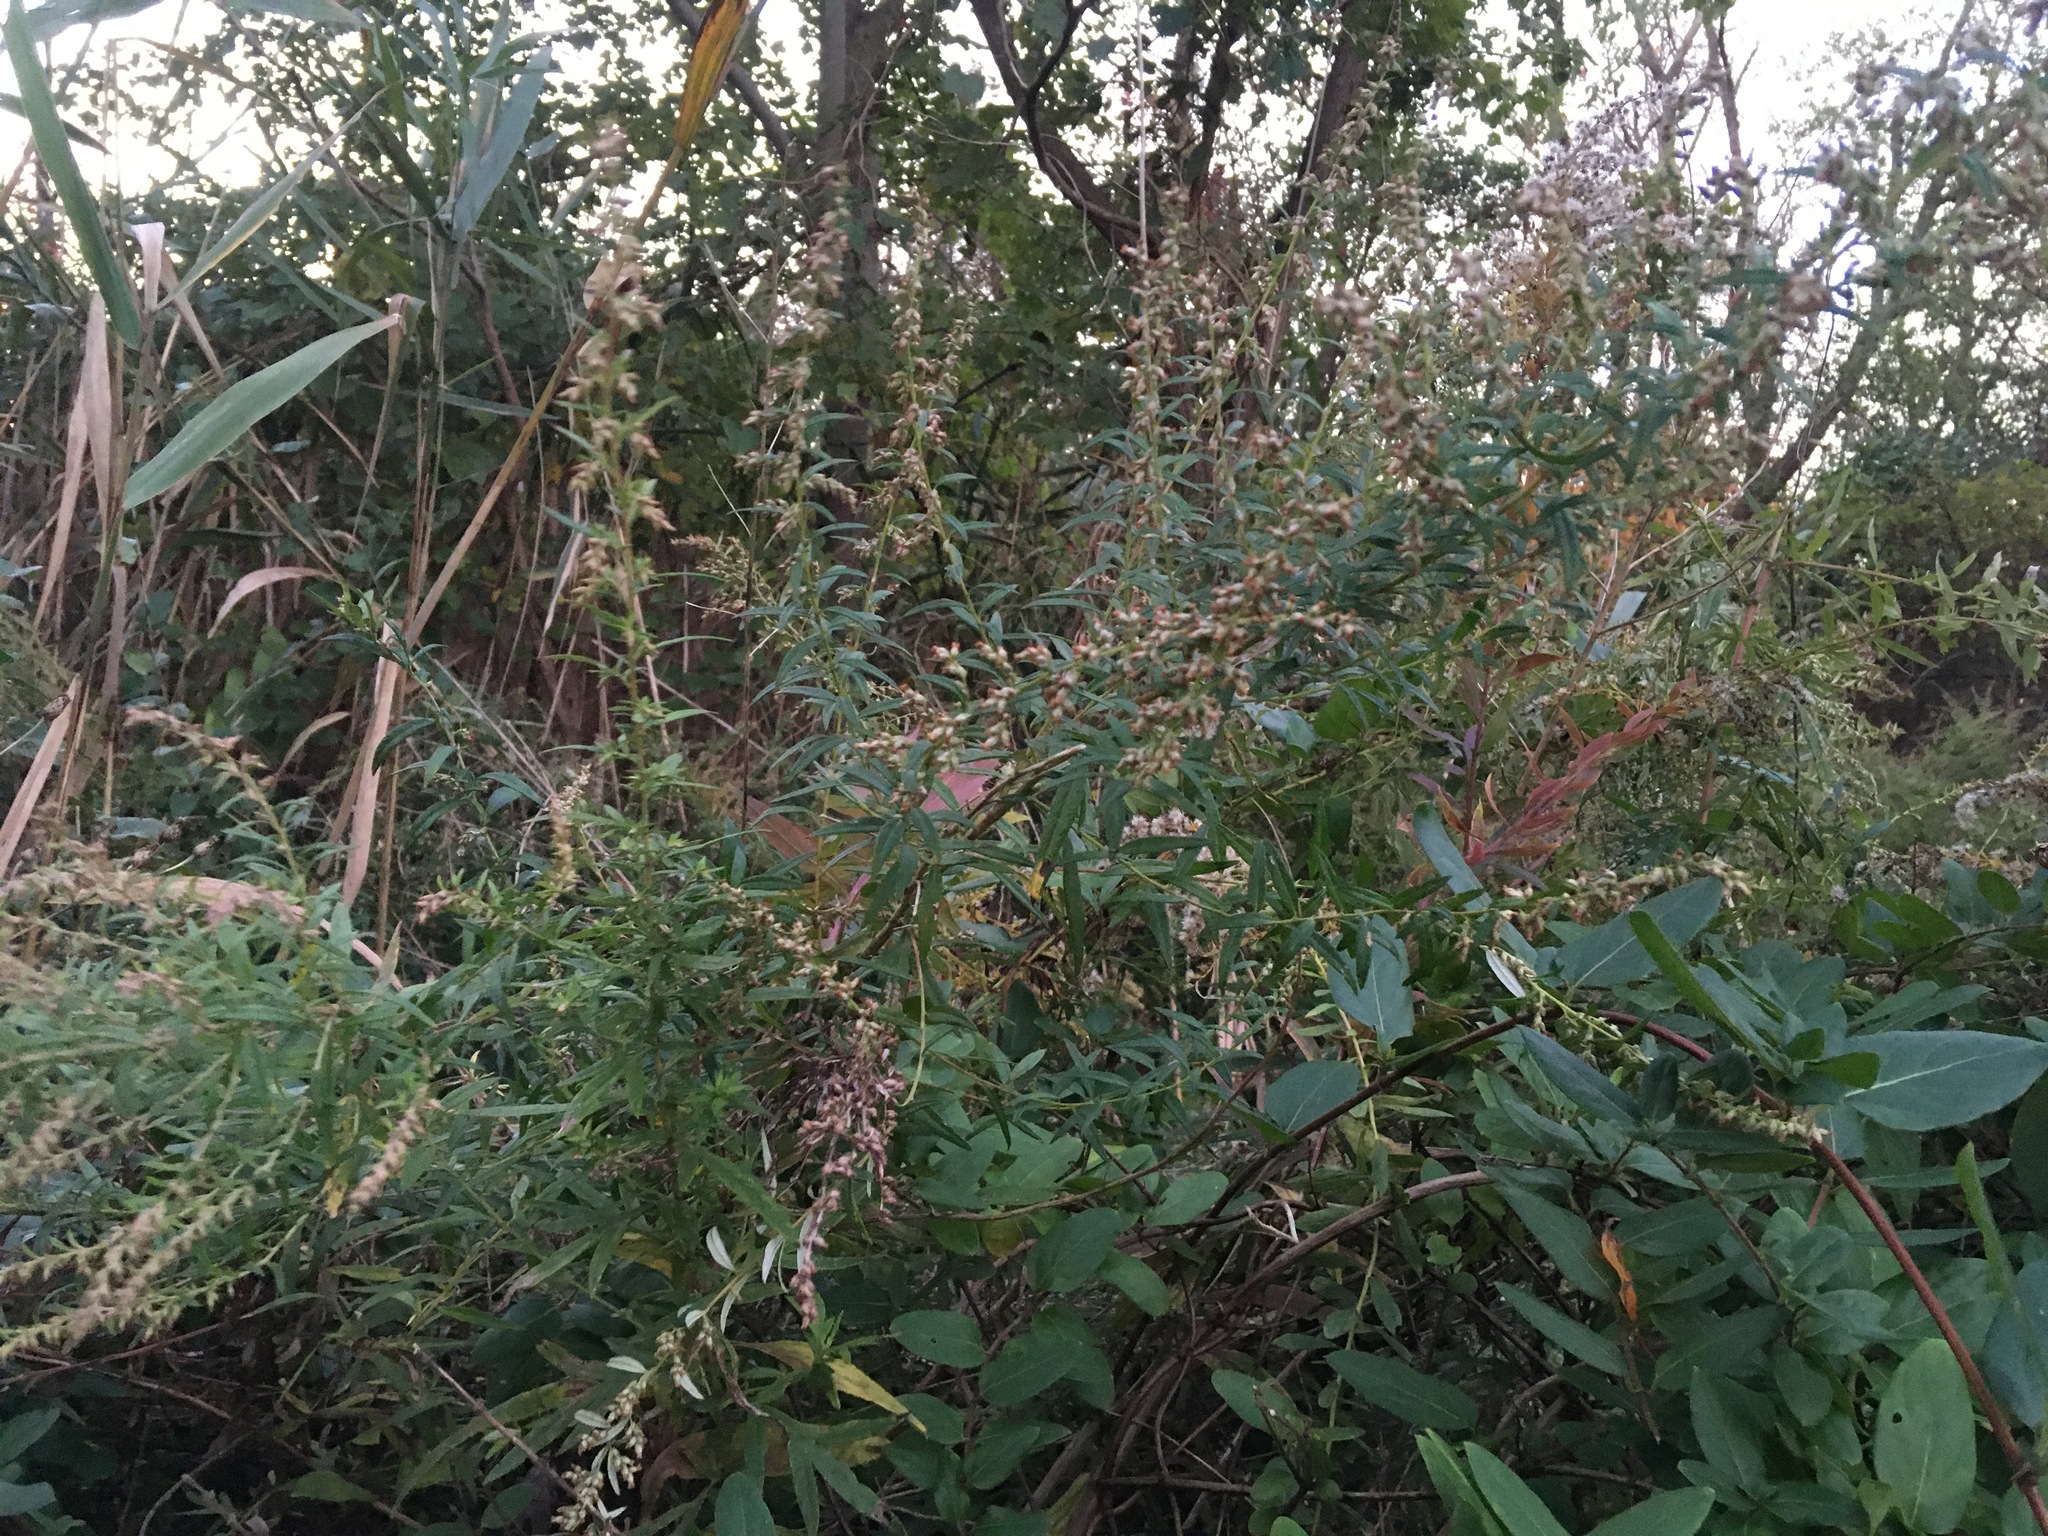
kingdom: Plantae
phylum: Tracheophyta
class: Magnoliopsida
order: Asterales
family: Asteraceae
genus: Artemisia
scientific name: Artemisia vulgaris
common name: Mugwort
